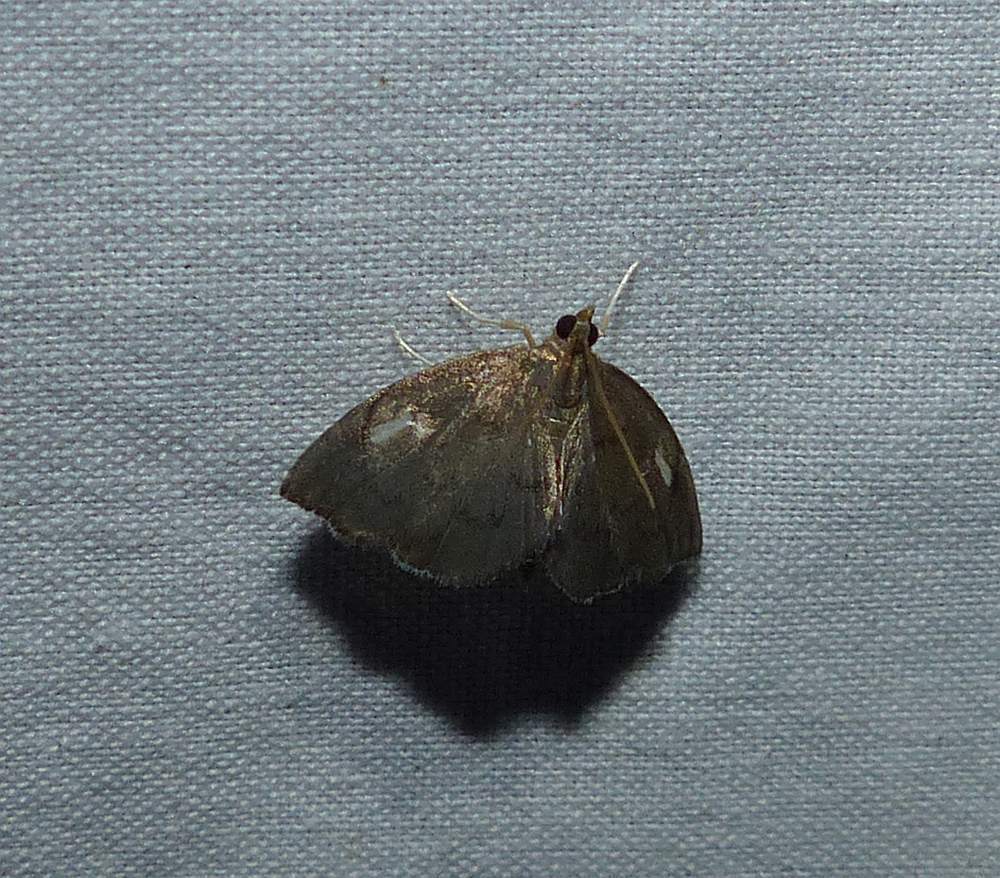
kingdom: Animalia
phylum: Arthropoda
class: Insecta
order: Lepidoptera
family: Crambidae
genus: Perispasta
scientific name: Perispasta caeculalis
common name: Titian peale's moth
